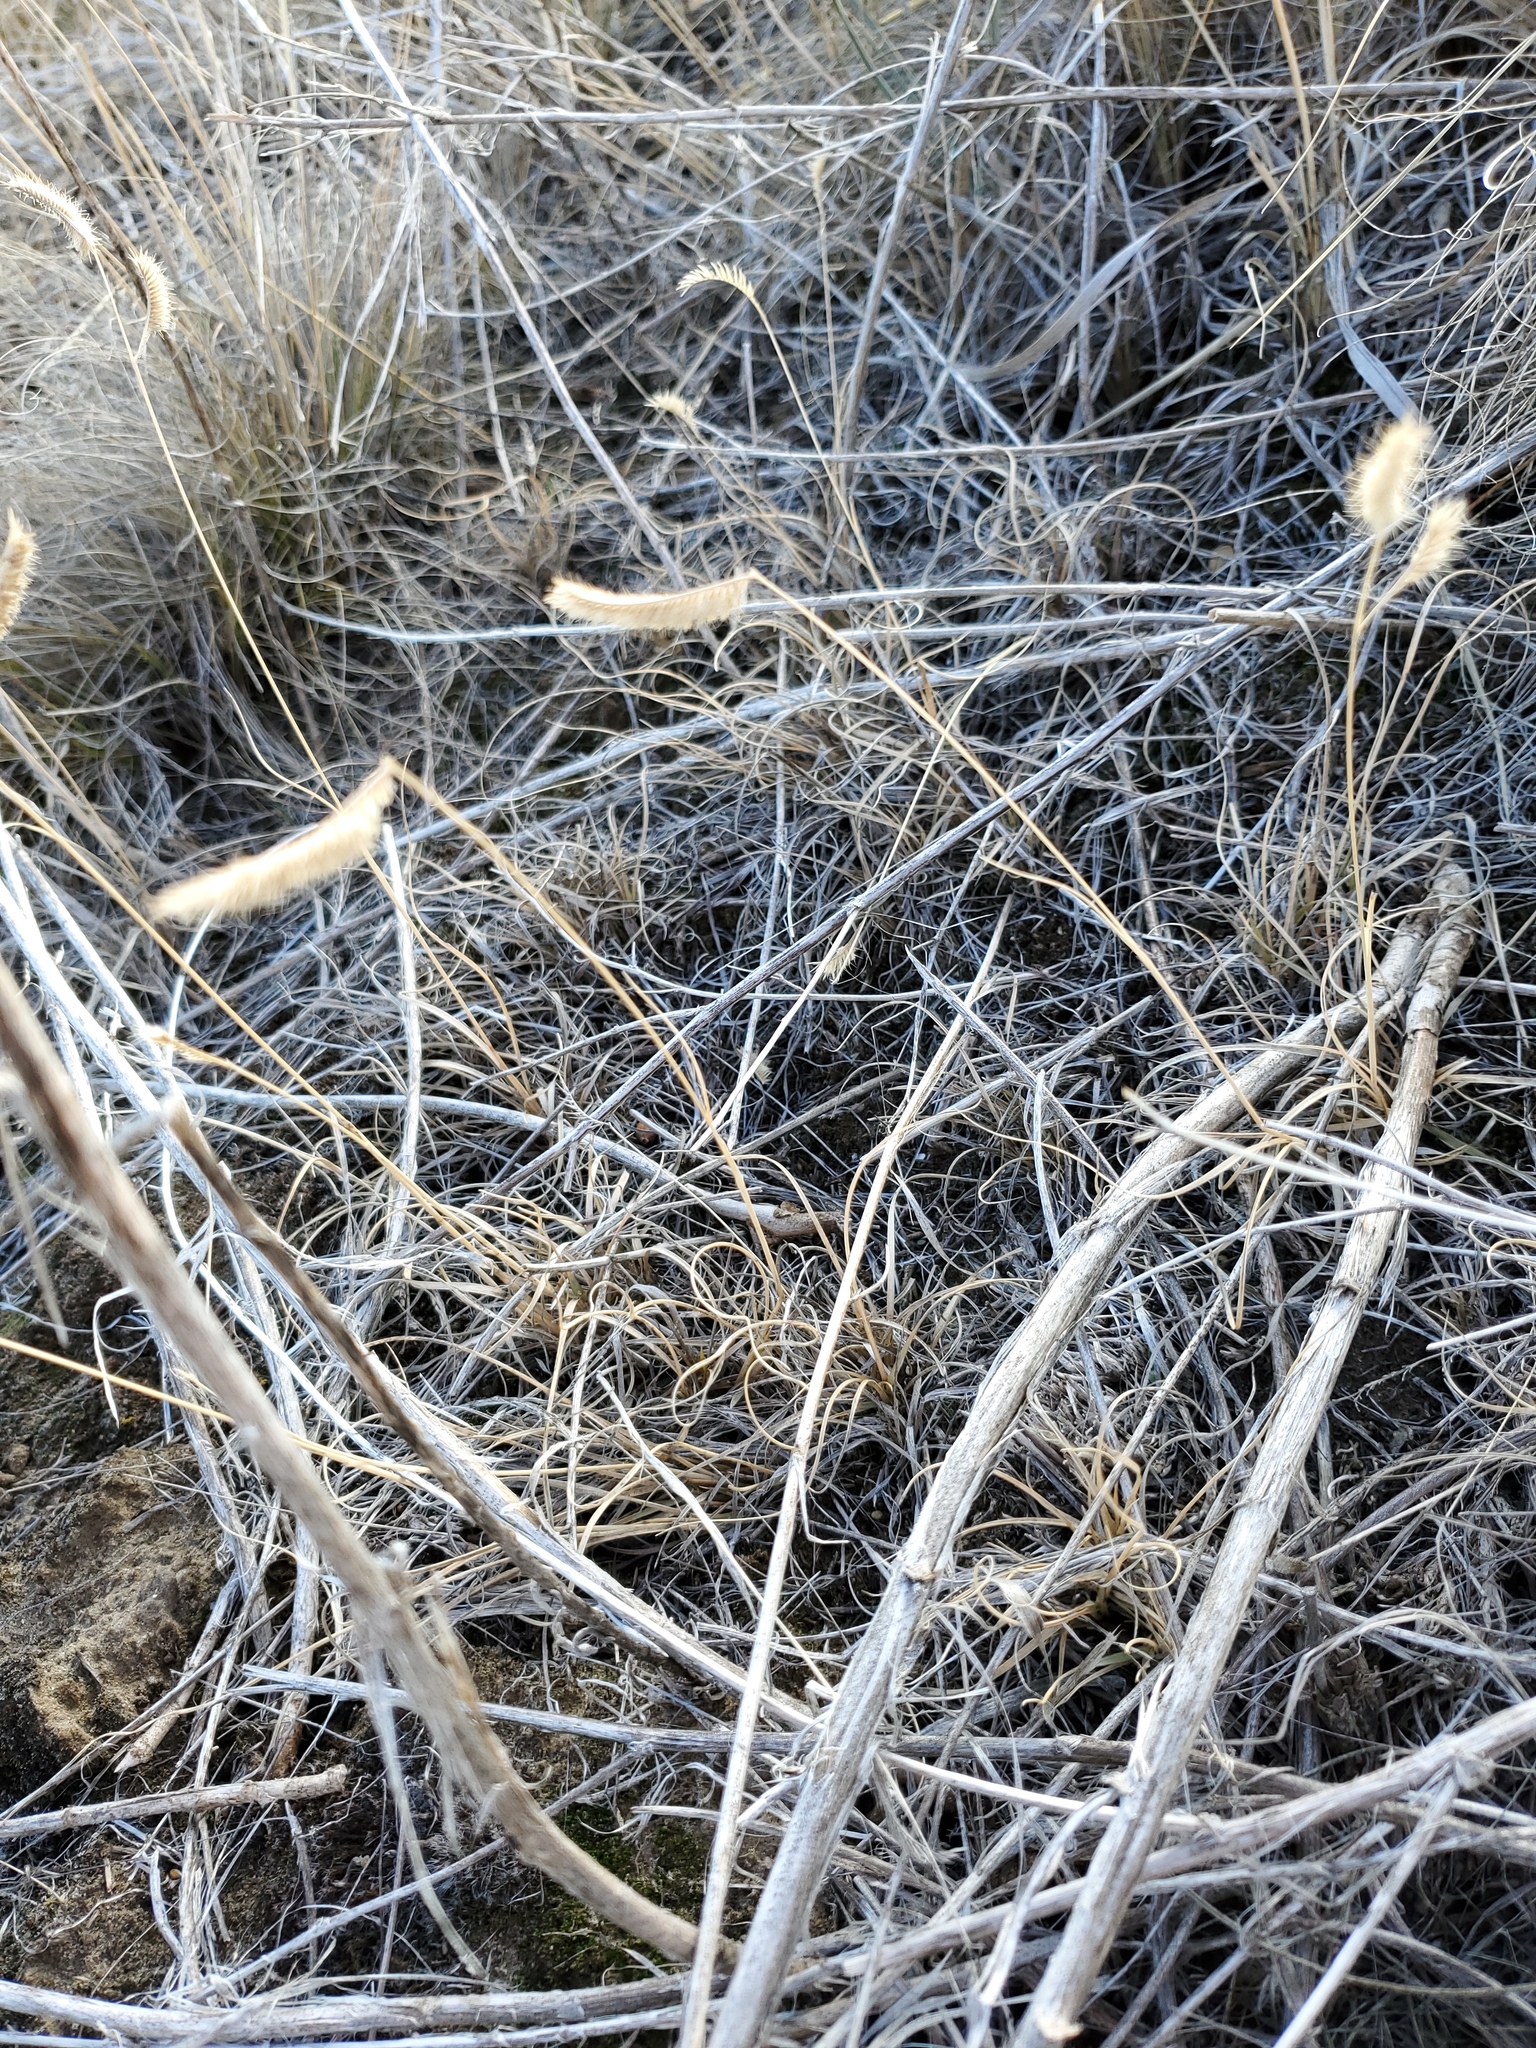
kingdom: Plantae
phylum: Tracheophyta
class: Liliopsida
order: Poales
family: Poaceae
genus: Bouteloua
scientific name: Bouteloua gracilis
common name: Blue grama
